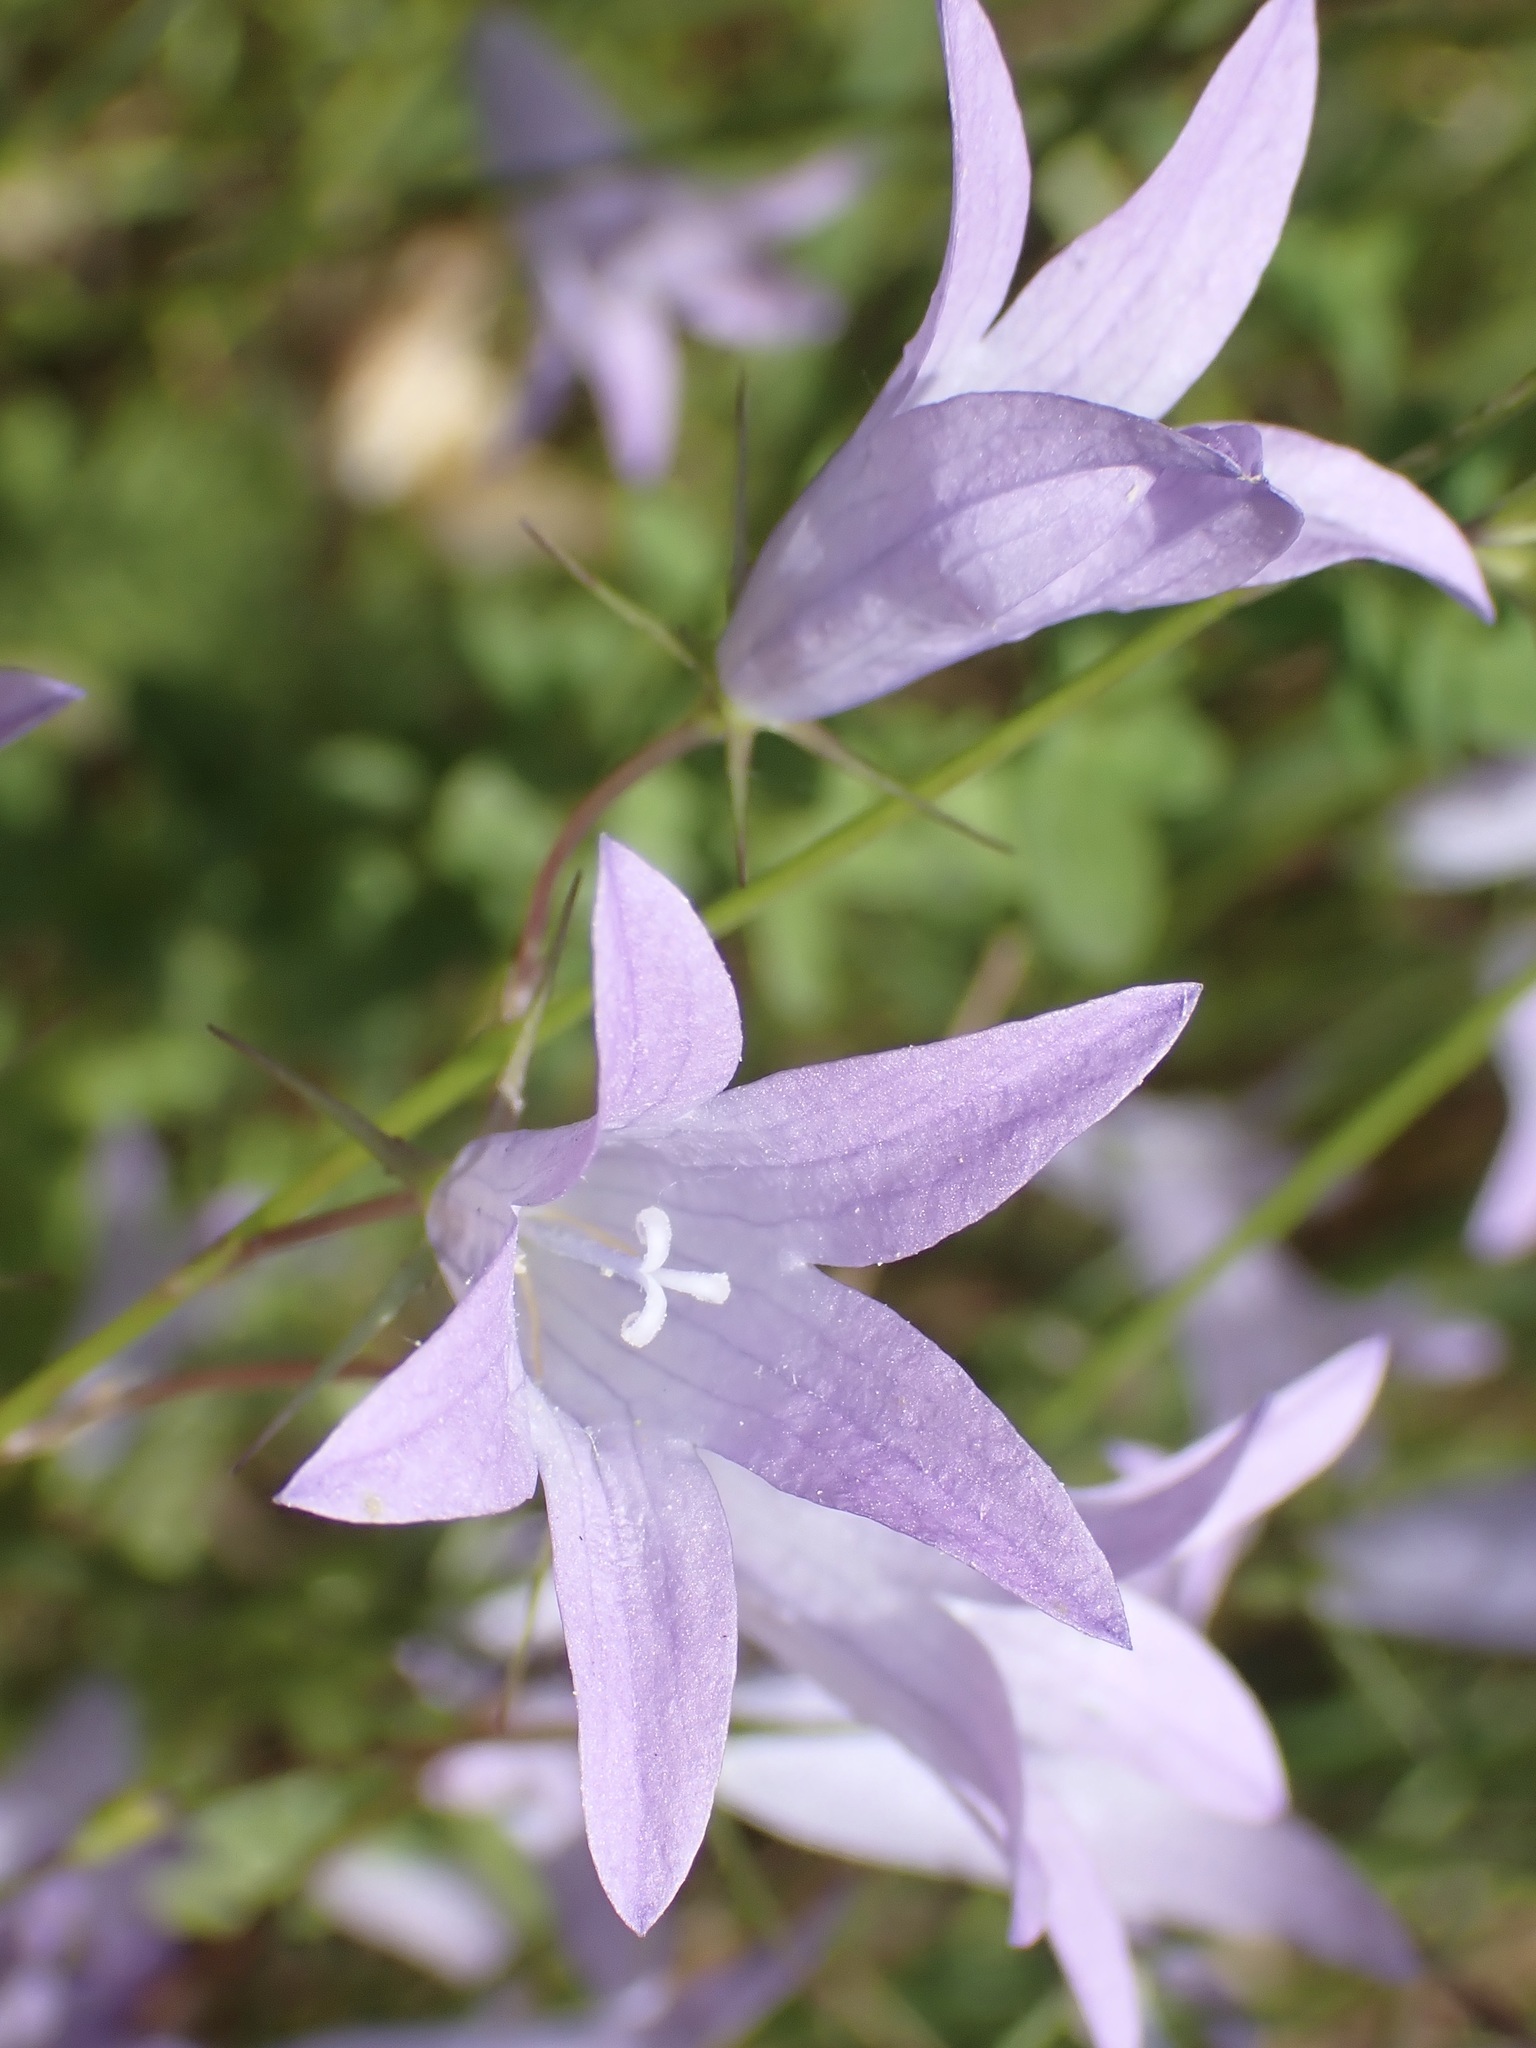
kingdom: Plantae
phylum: Tracheophyta
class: Magnoliopsida
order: Asterales
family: Campanulaceae
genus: Campanula
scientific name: Campanula patula
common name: Spreading bellflower
